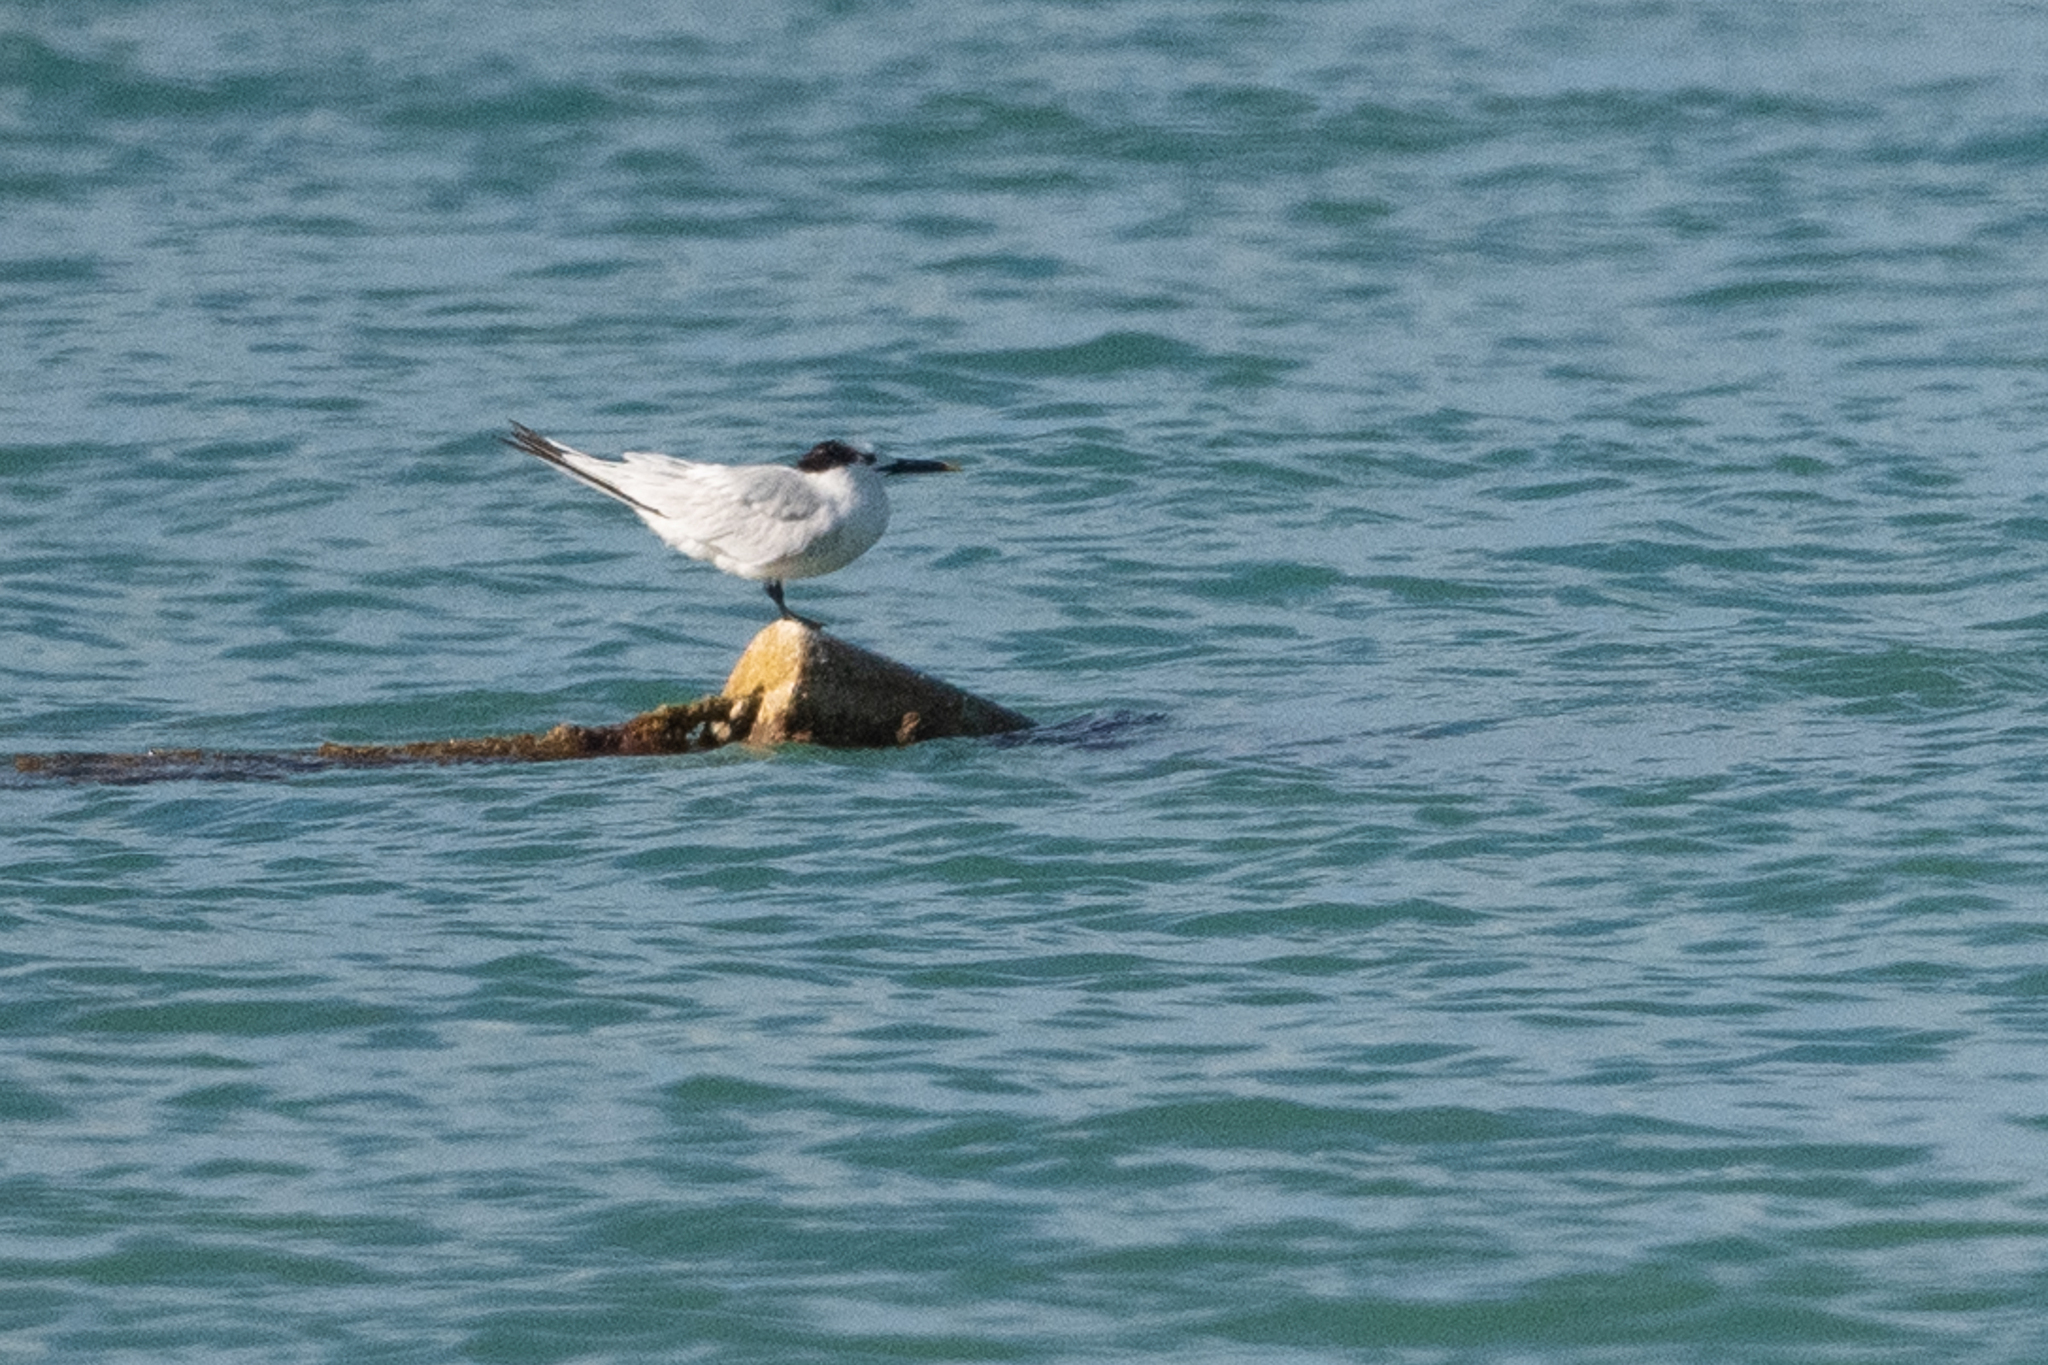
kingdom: Animalia
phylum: Chordata
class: Aves
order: Charadriiformes
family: Laridae
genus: Thalasseus
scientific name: Thalasseus sandvicensis
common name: Sandwich tern
